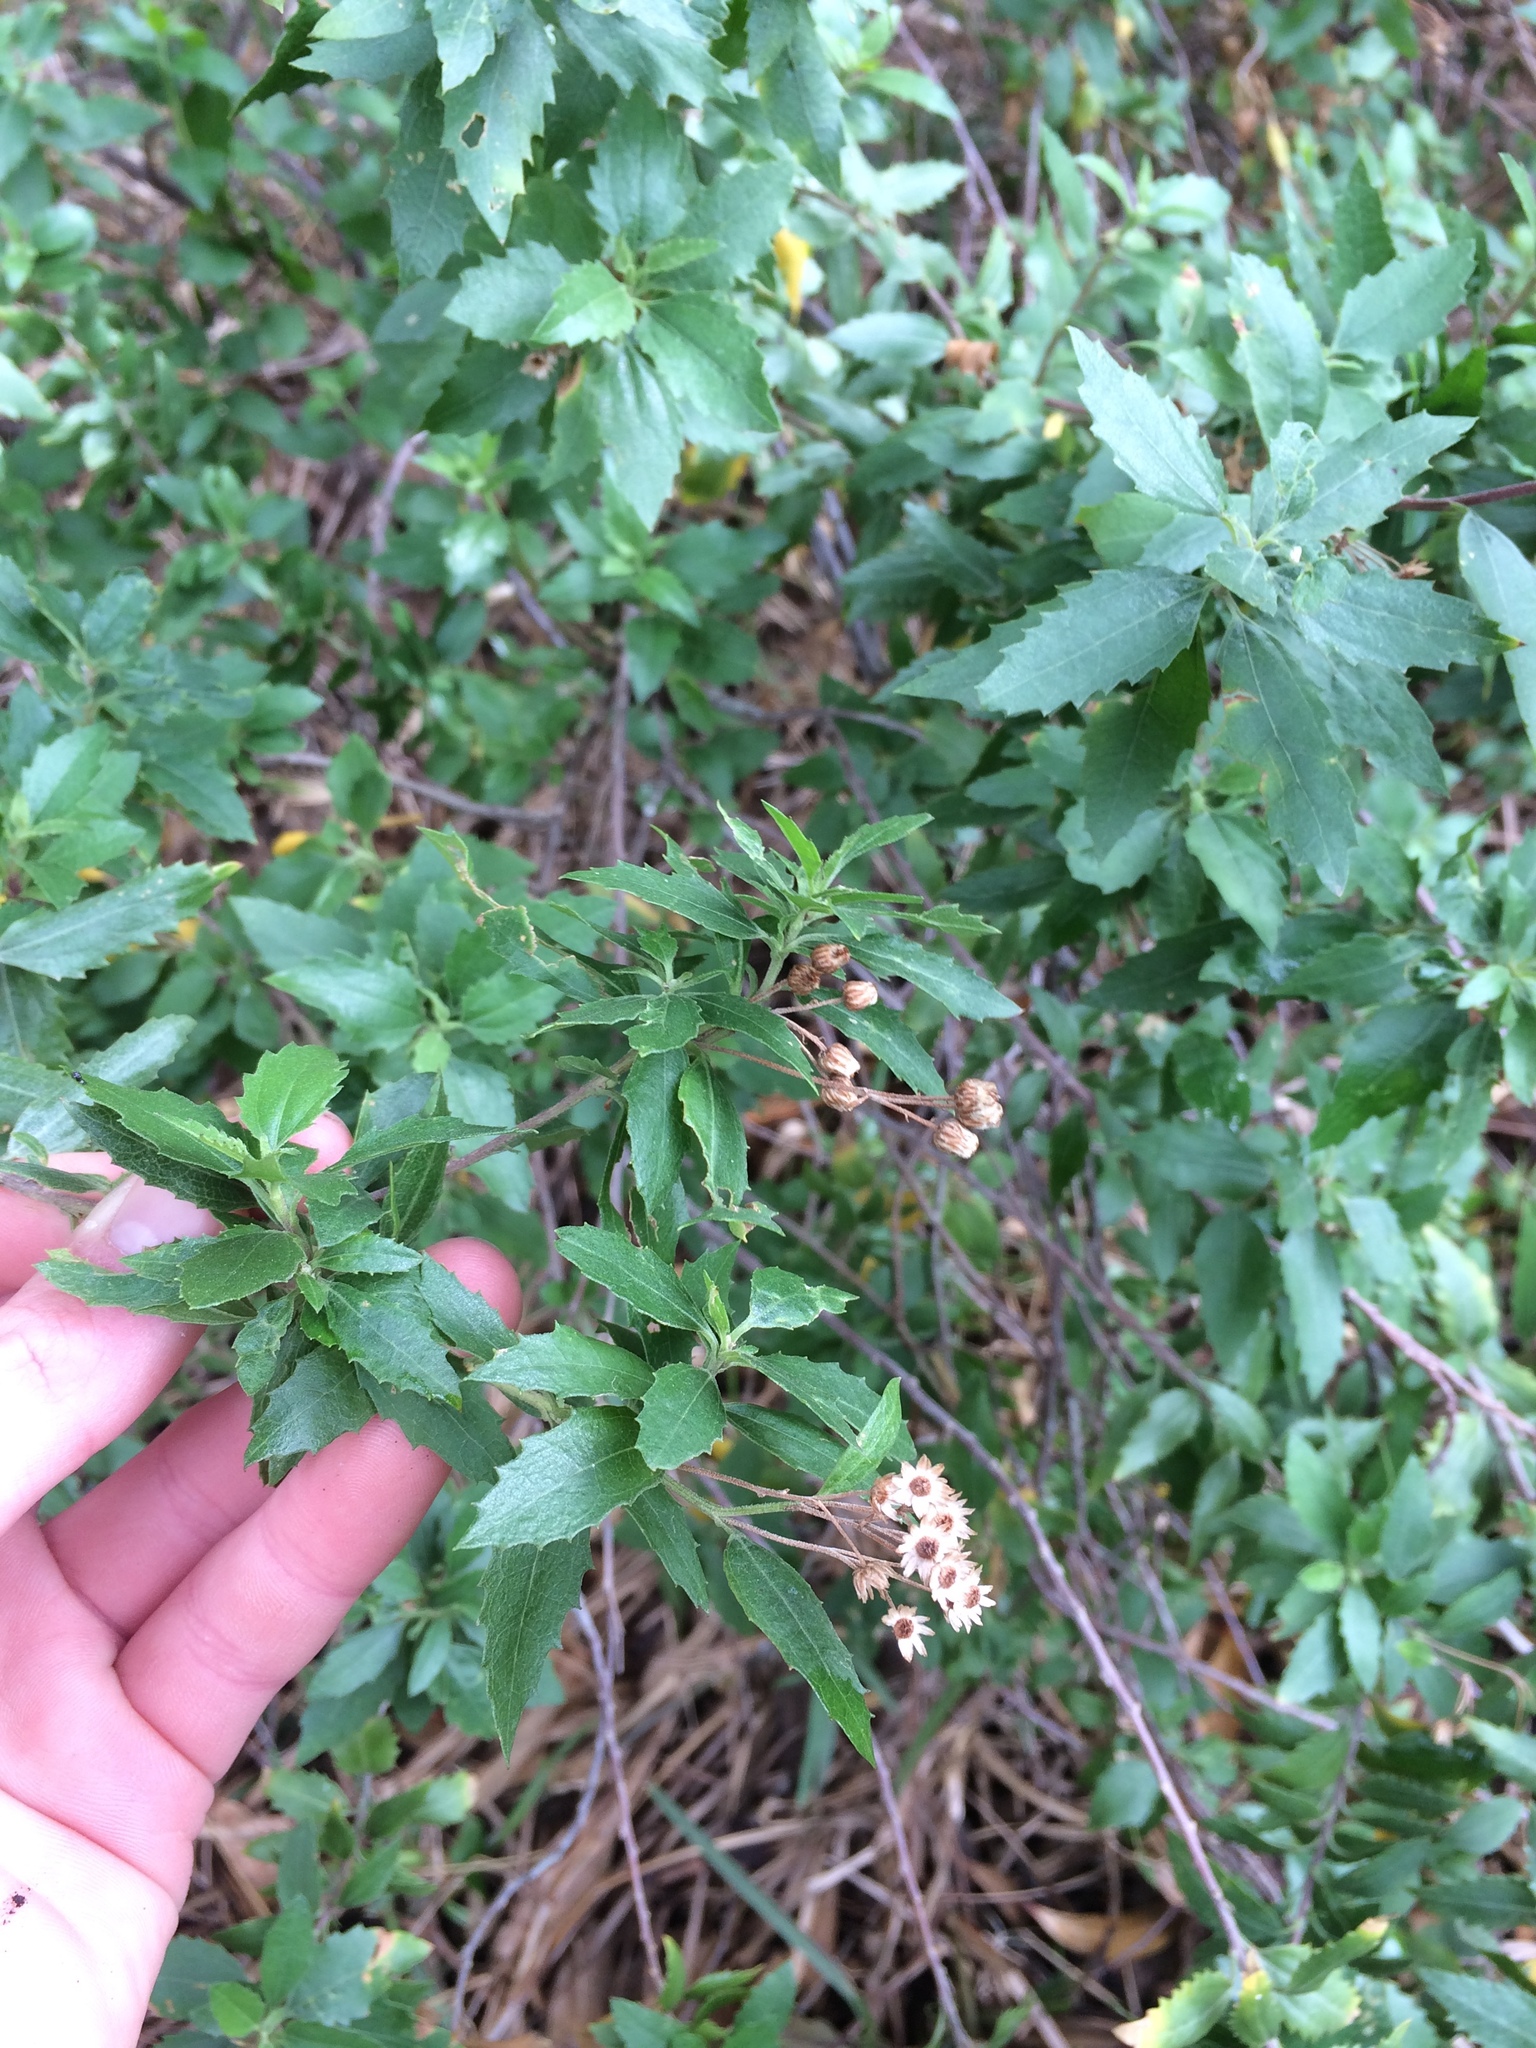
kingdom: Plantae
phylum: Tracheophyta
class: Magnoliopsida
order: Asterales
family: Asteraceae
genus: Nidorella
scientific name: Nidorella ivifolia
